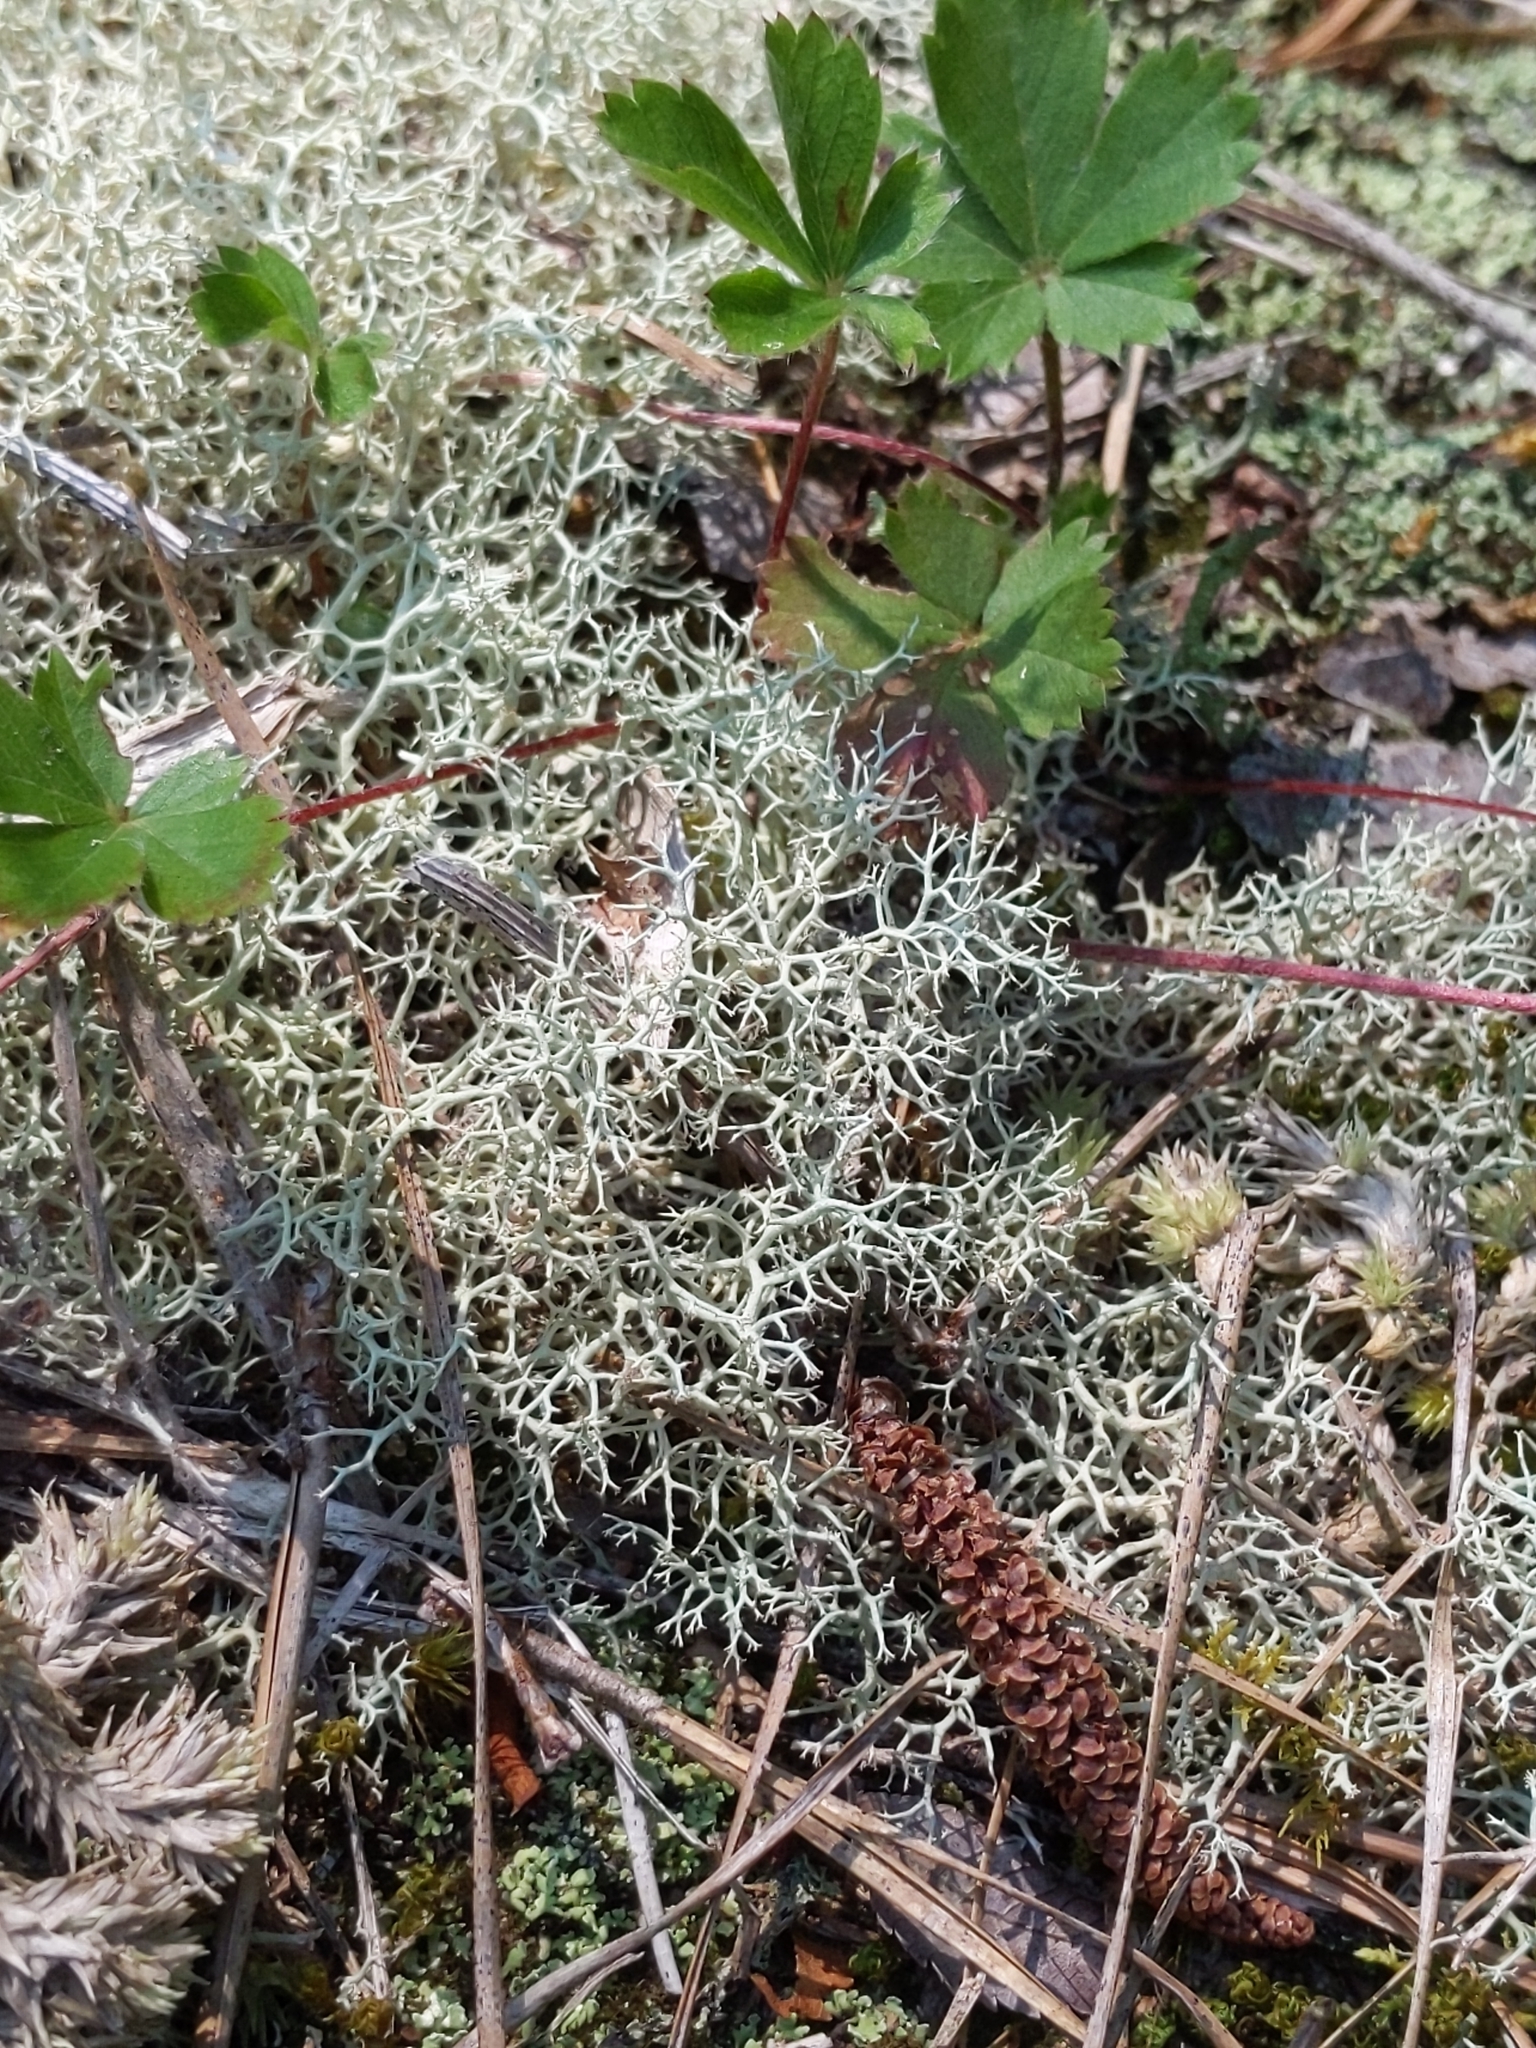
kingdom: Fungi
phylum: Ascomycota
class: Lecanoromycetes
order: Lecanorales
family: Cladoniaceae
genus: Cladonia
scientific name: Cladonia subtenuis
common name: Dixie reindeer lichen
